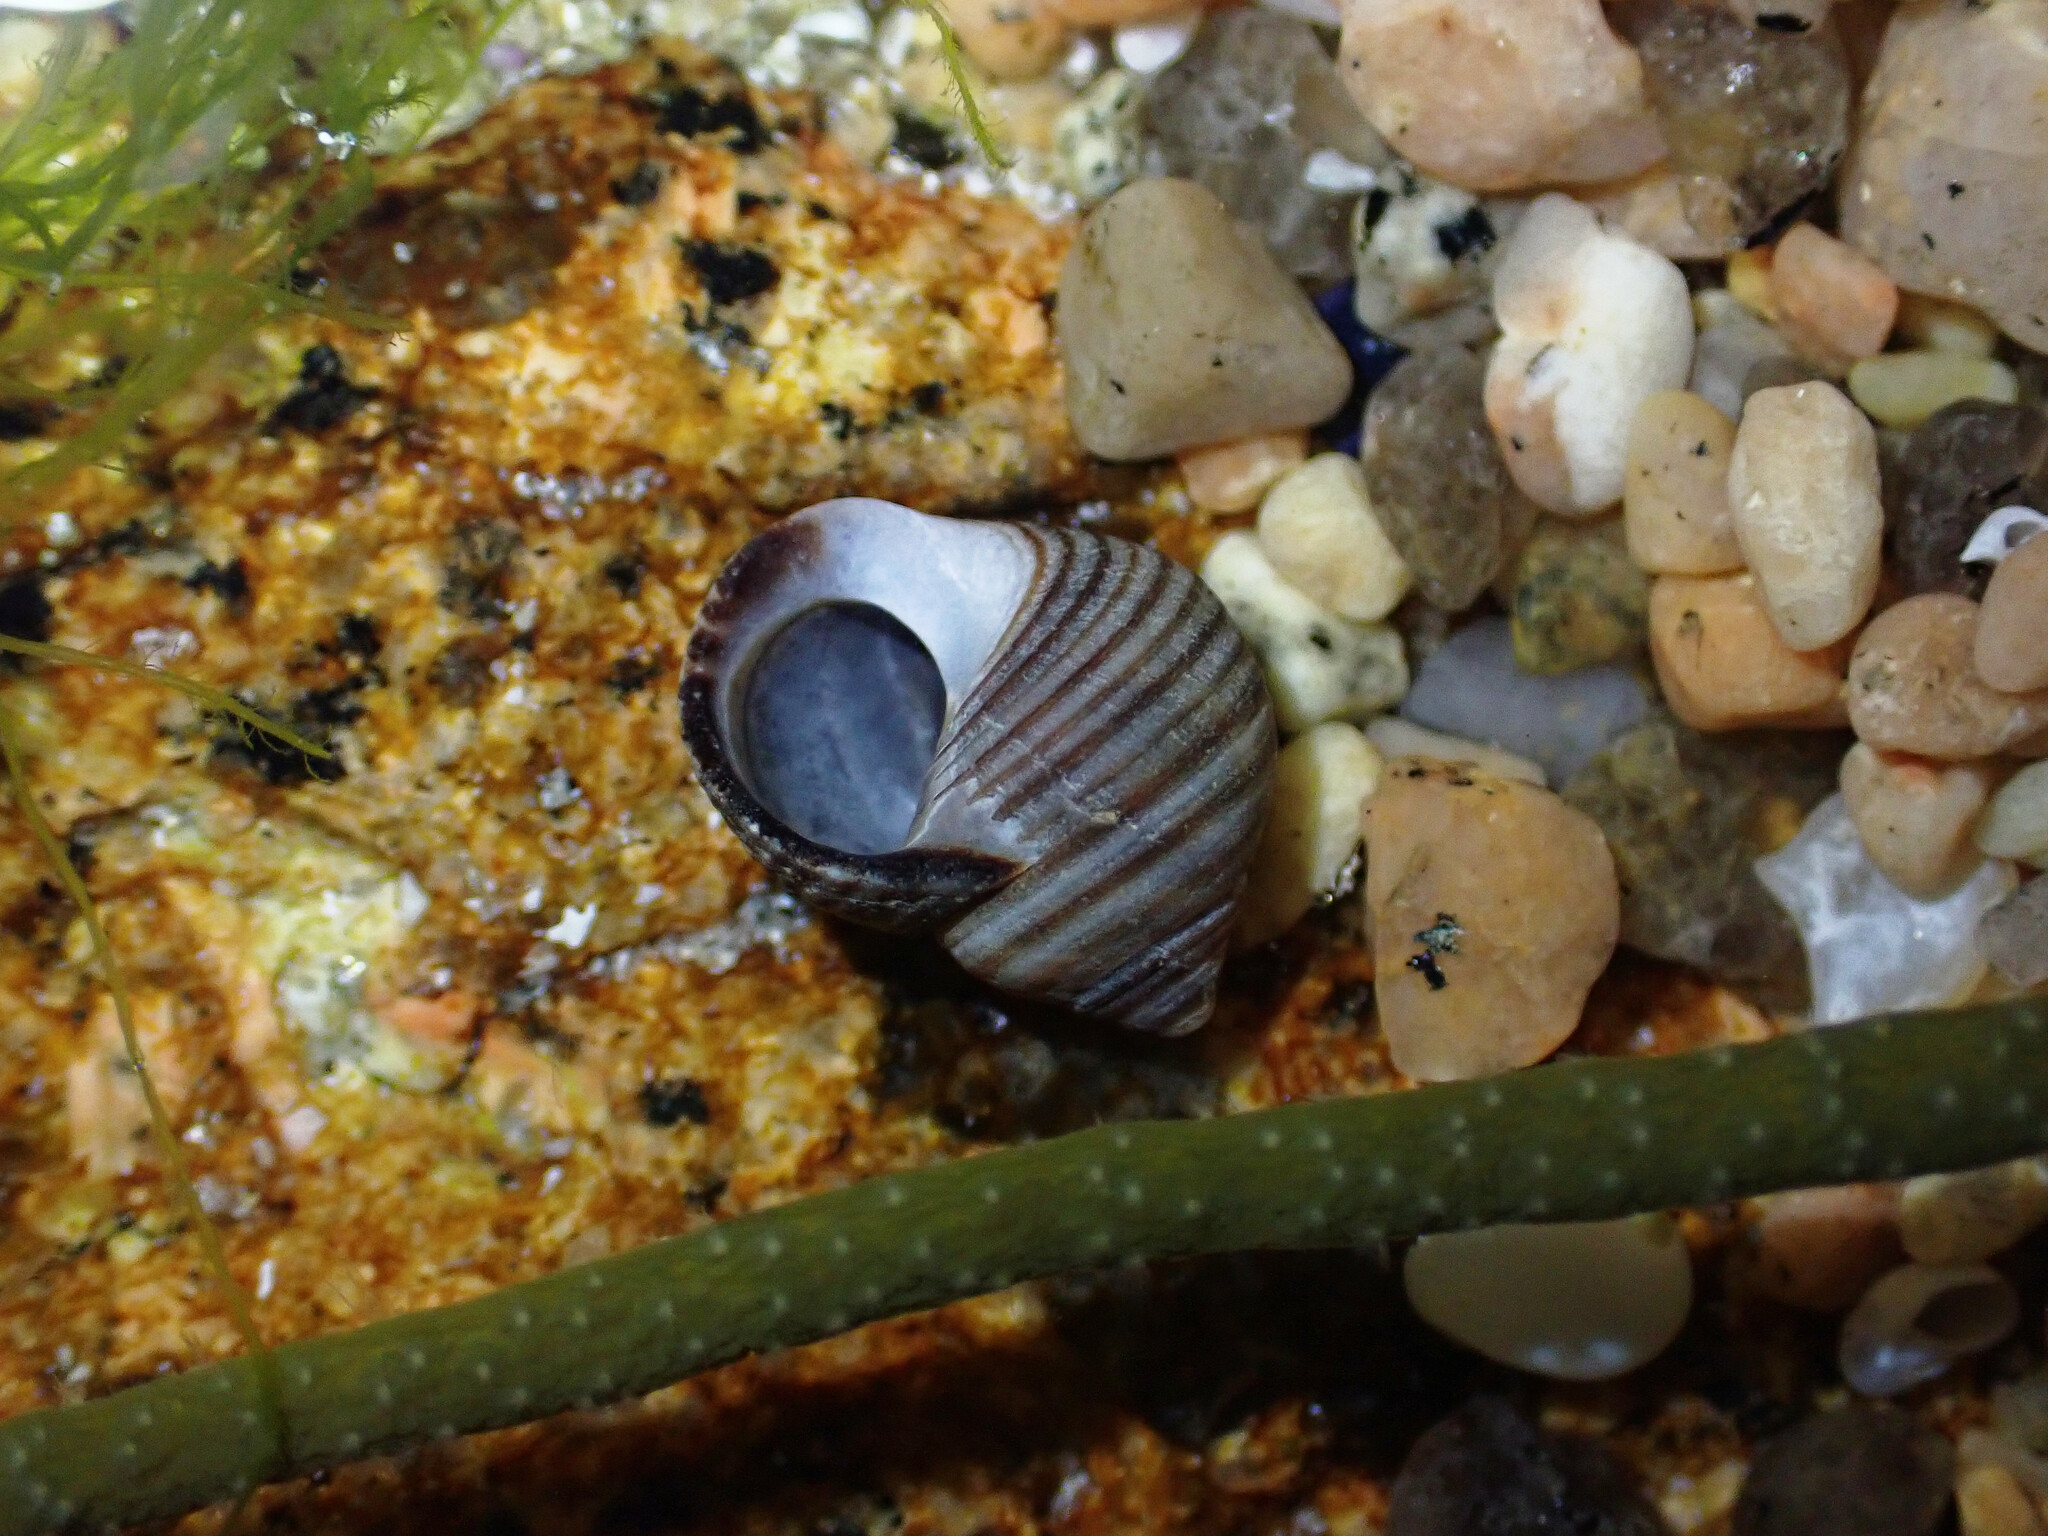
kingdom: Animalia
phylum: Mollusca
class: Gastropoda
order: Littorinimorpha
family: Littorinidae
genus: Littorina
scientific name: Littorina littorea
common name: Common periwinkle
